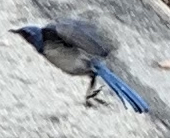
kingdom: Animalia
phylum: Chordata
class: Aves
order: Passeriformes
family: Corvidae
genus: Aphelocoma
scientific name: Aphelocoma californica
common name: California scrub-jay
